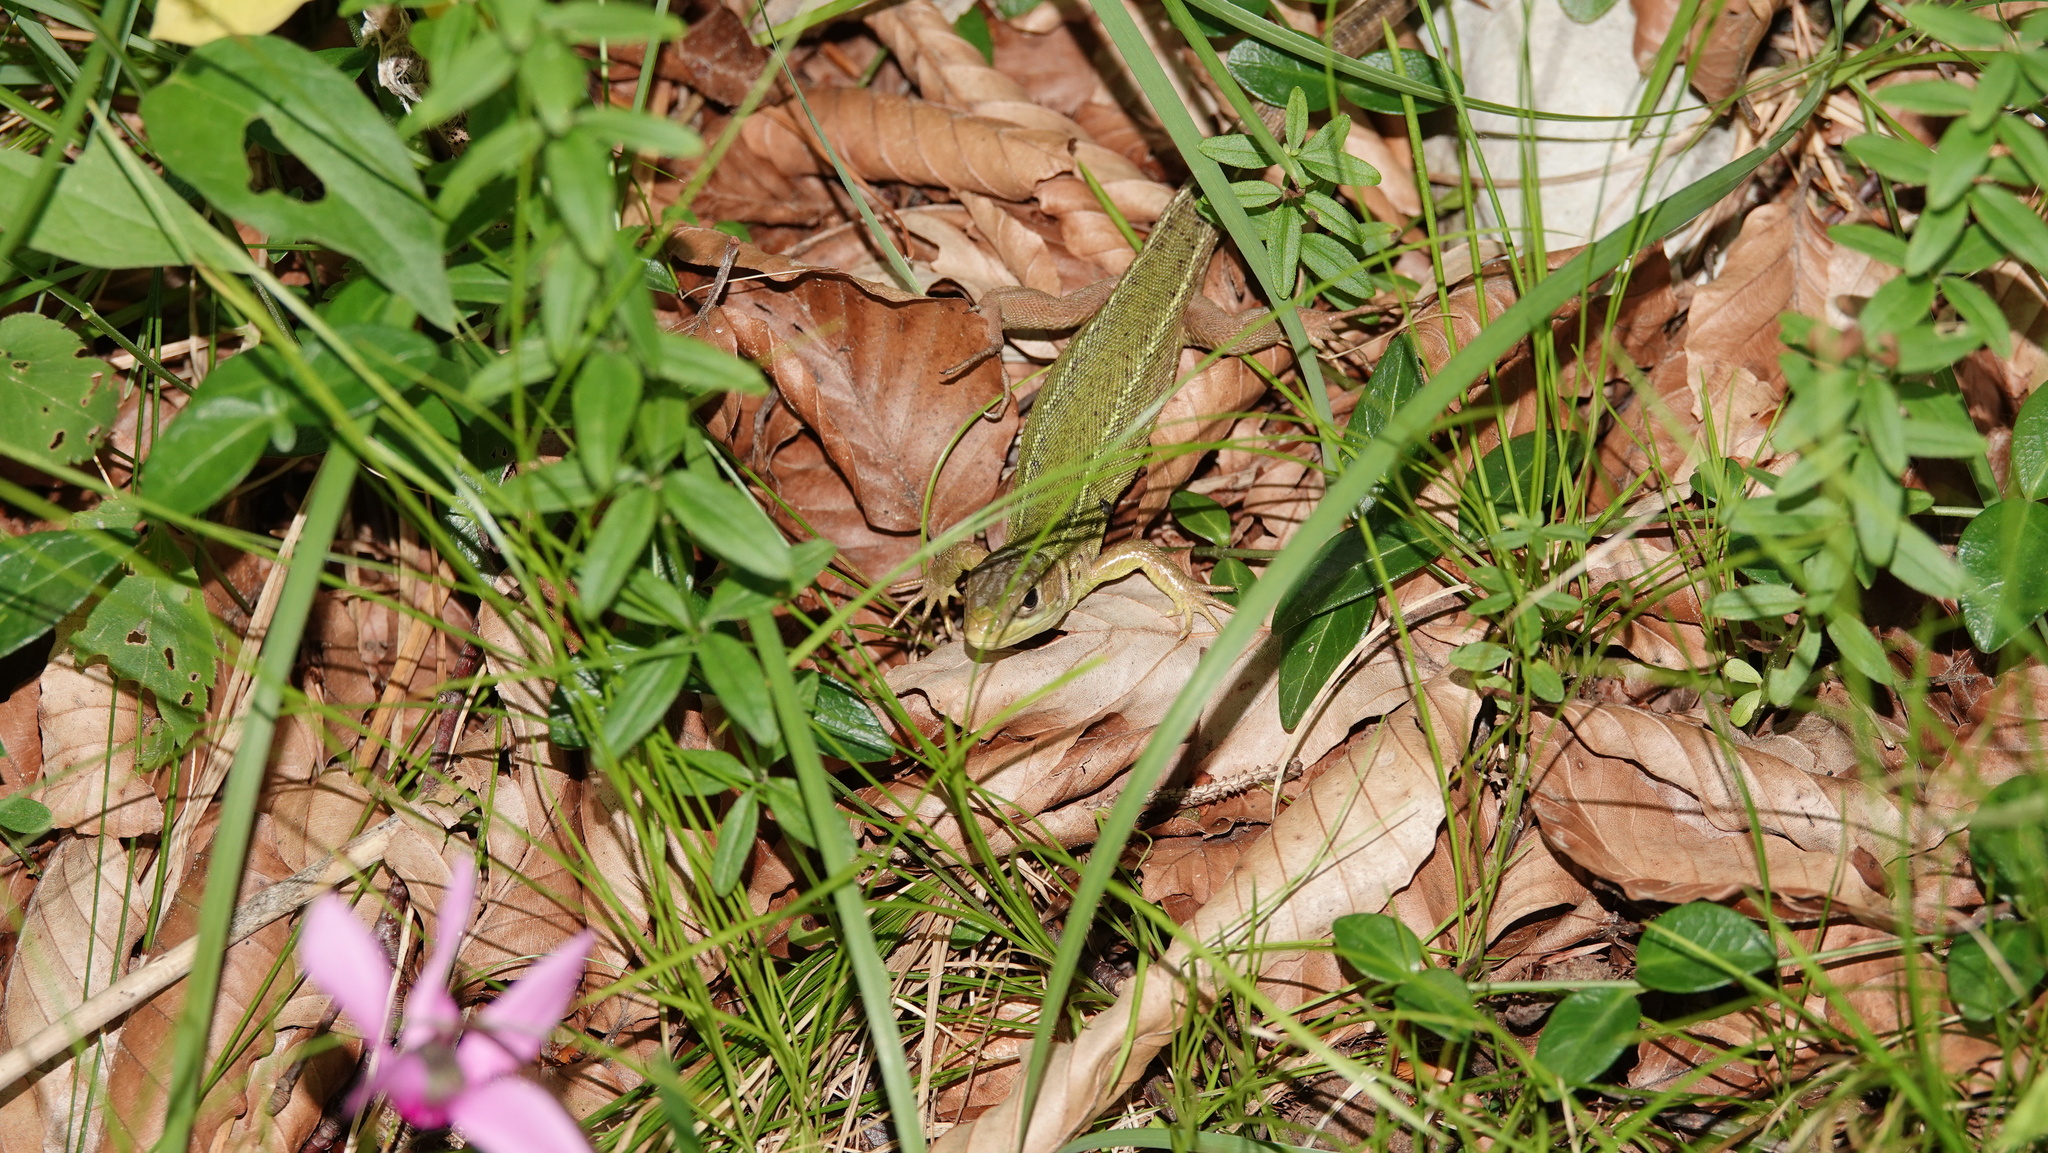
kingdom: Animalia
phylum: Chordata
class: Squamata
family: Lacertidae
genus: Lacerta
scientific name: Lacerta bilineata
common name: Western green lizard
